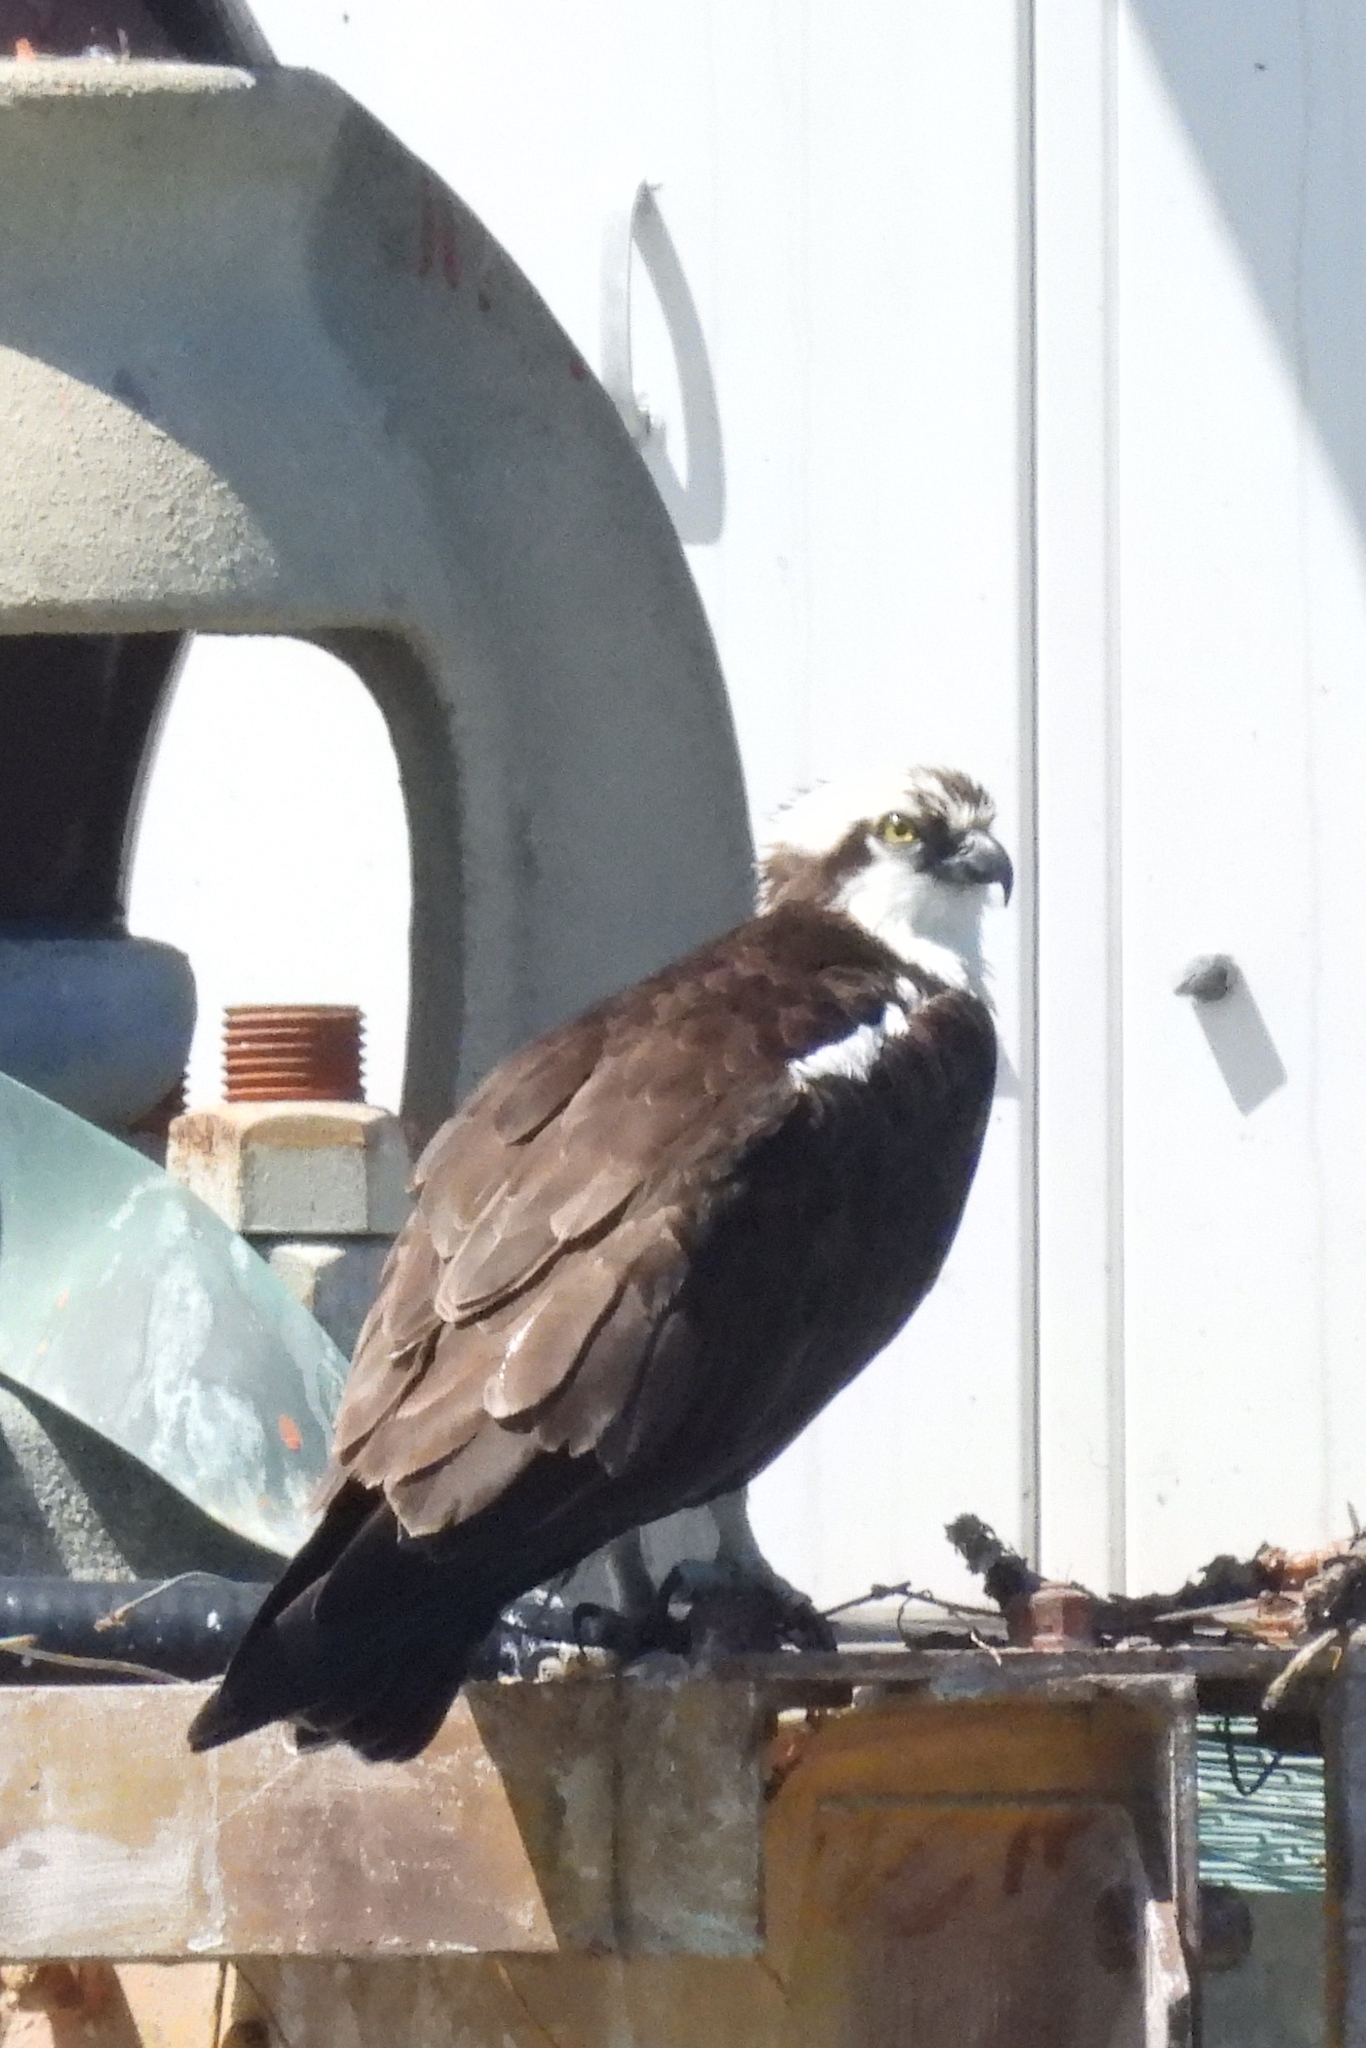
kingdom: Animalia
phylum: Chordata
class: Aves
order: Accipitriformes
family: Pandionidae
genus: Pandion
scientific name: Pandion haliaetus
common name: Osprey
